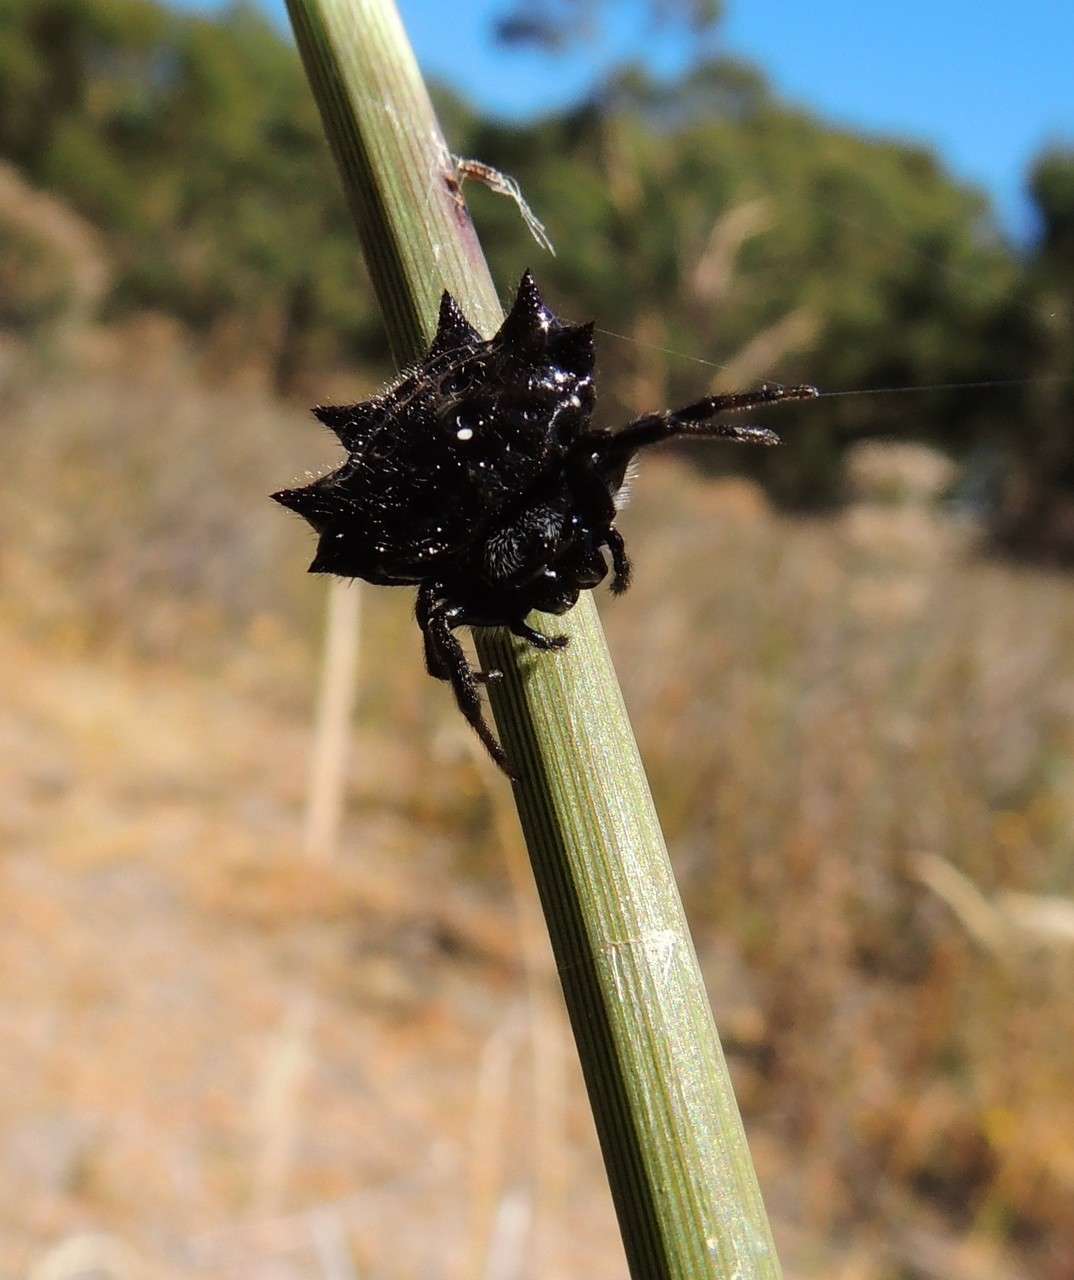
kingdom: Animalia
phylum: Arthropoda
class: Arachnida
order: Araneae
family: Araneidae
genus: Austracantha
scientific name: Austracantha minax
